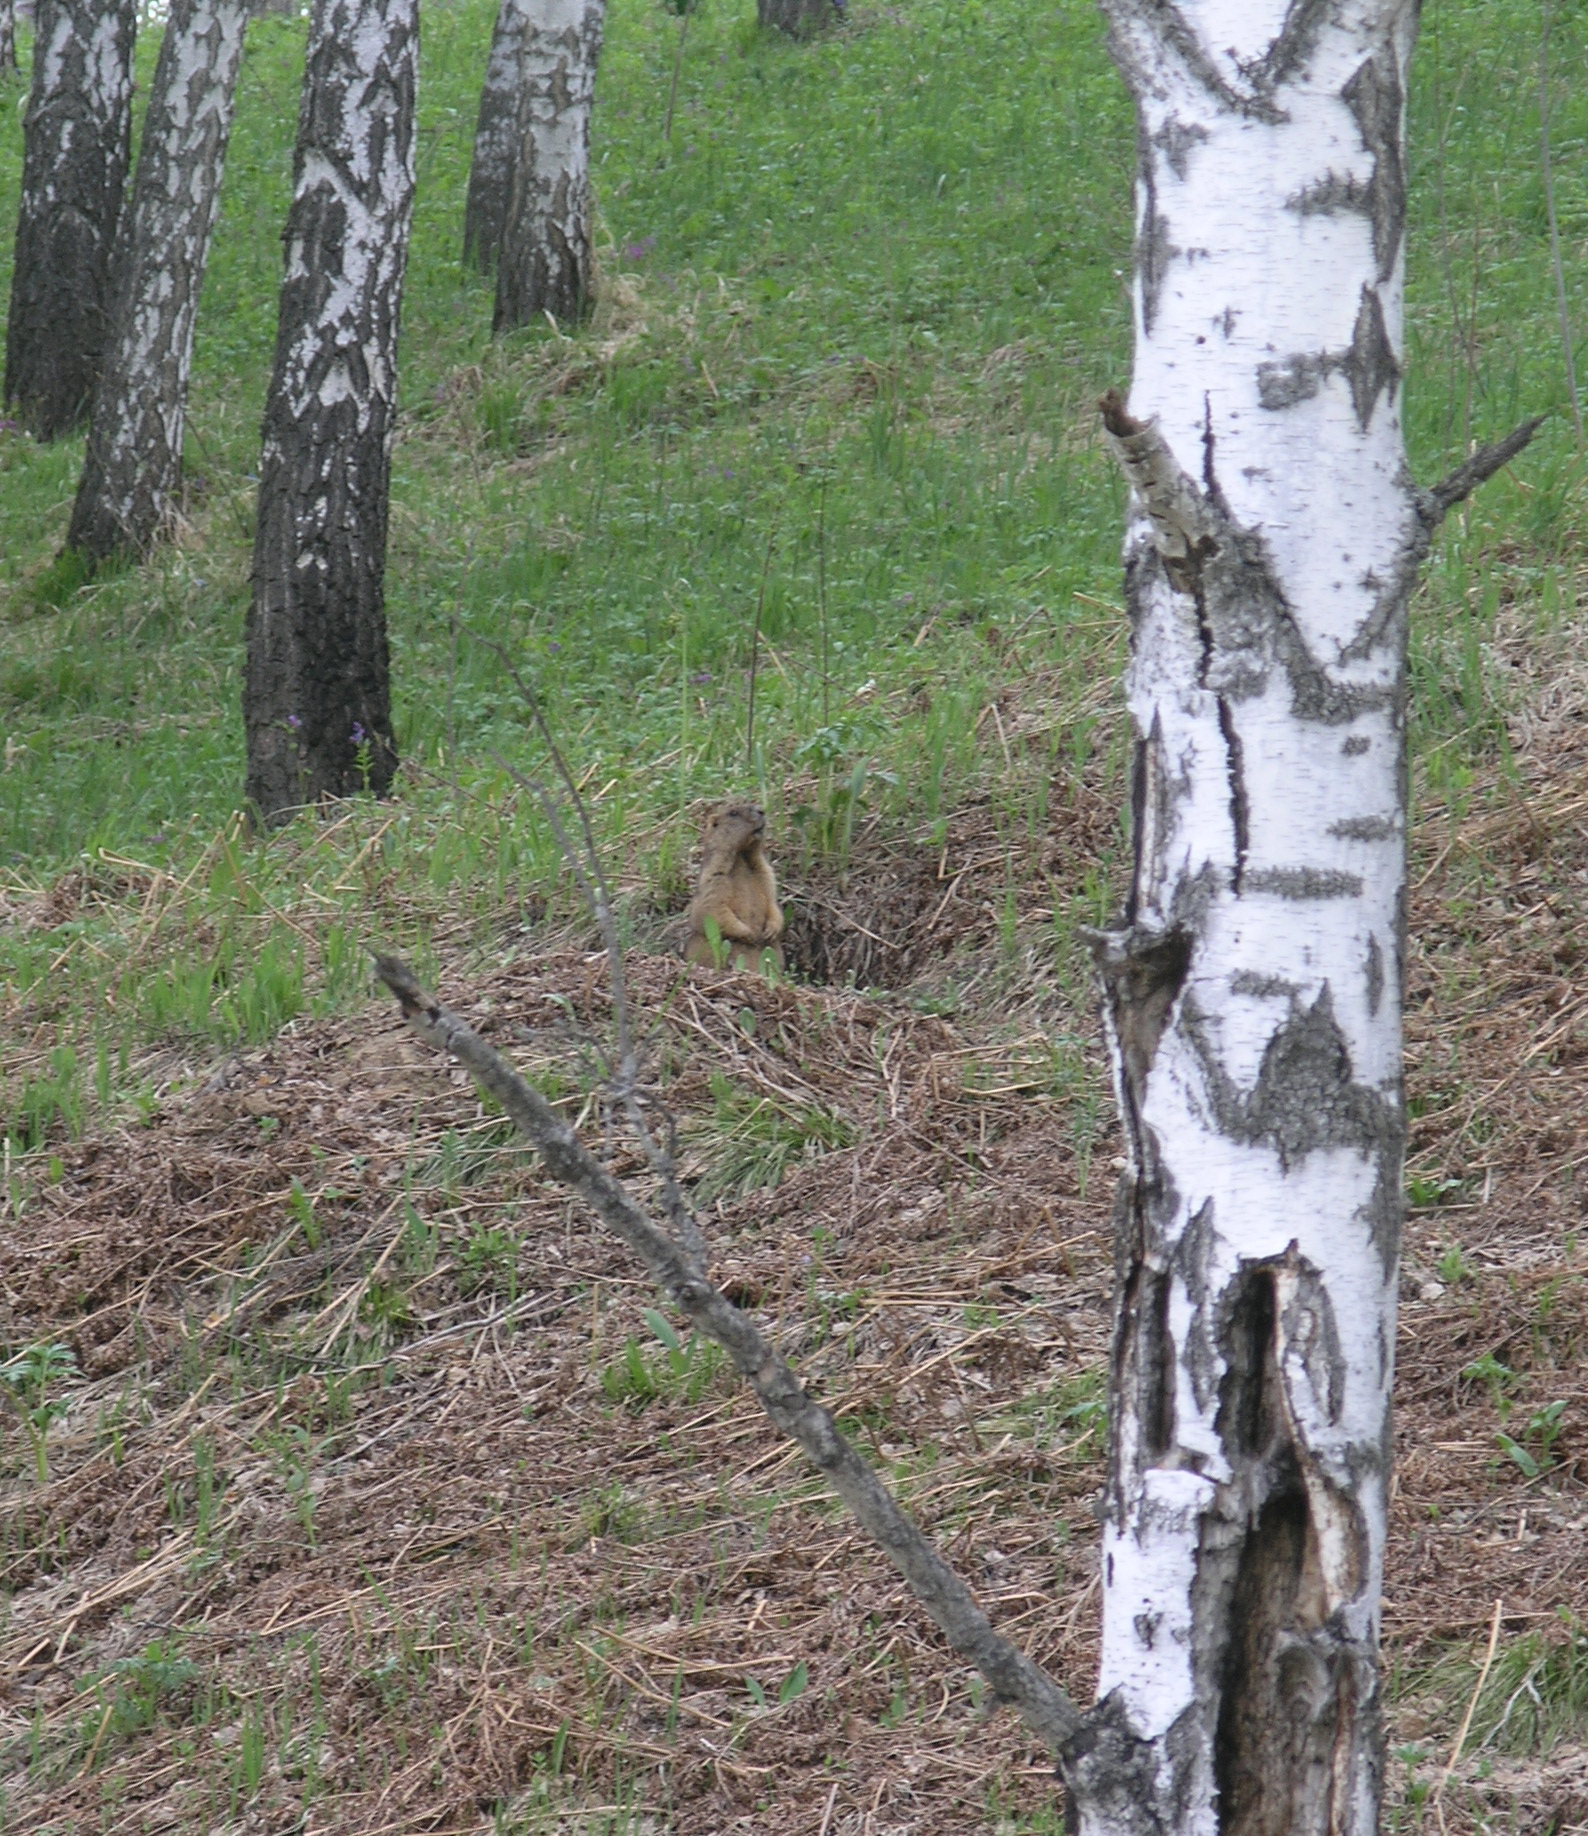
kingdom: Animalia
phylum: Chordata
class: Mammalia
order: Rodentia
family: Sciuridae
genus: Marmota
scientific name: Marmota kastschenkoi
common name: Forest steppe marmot
